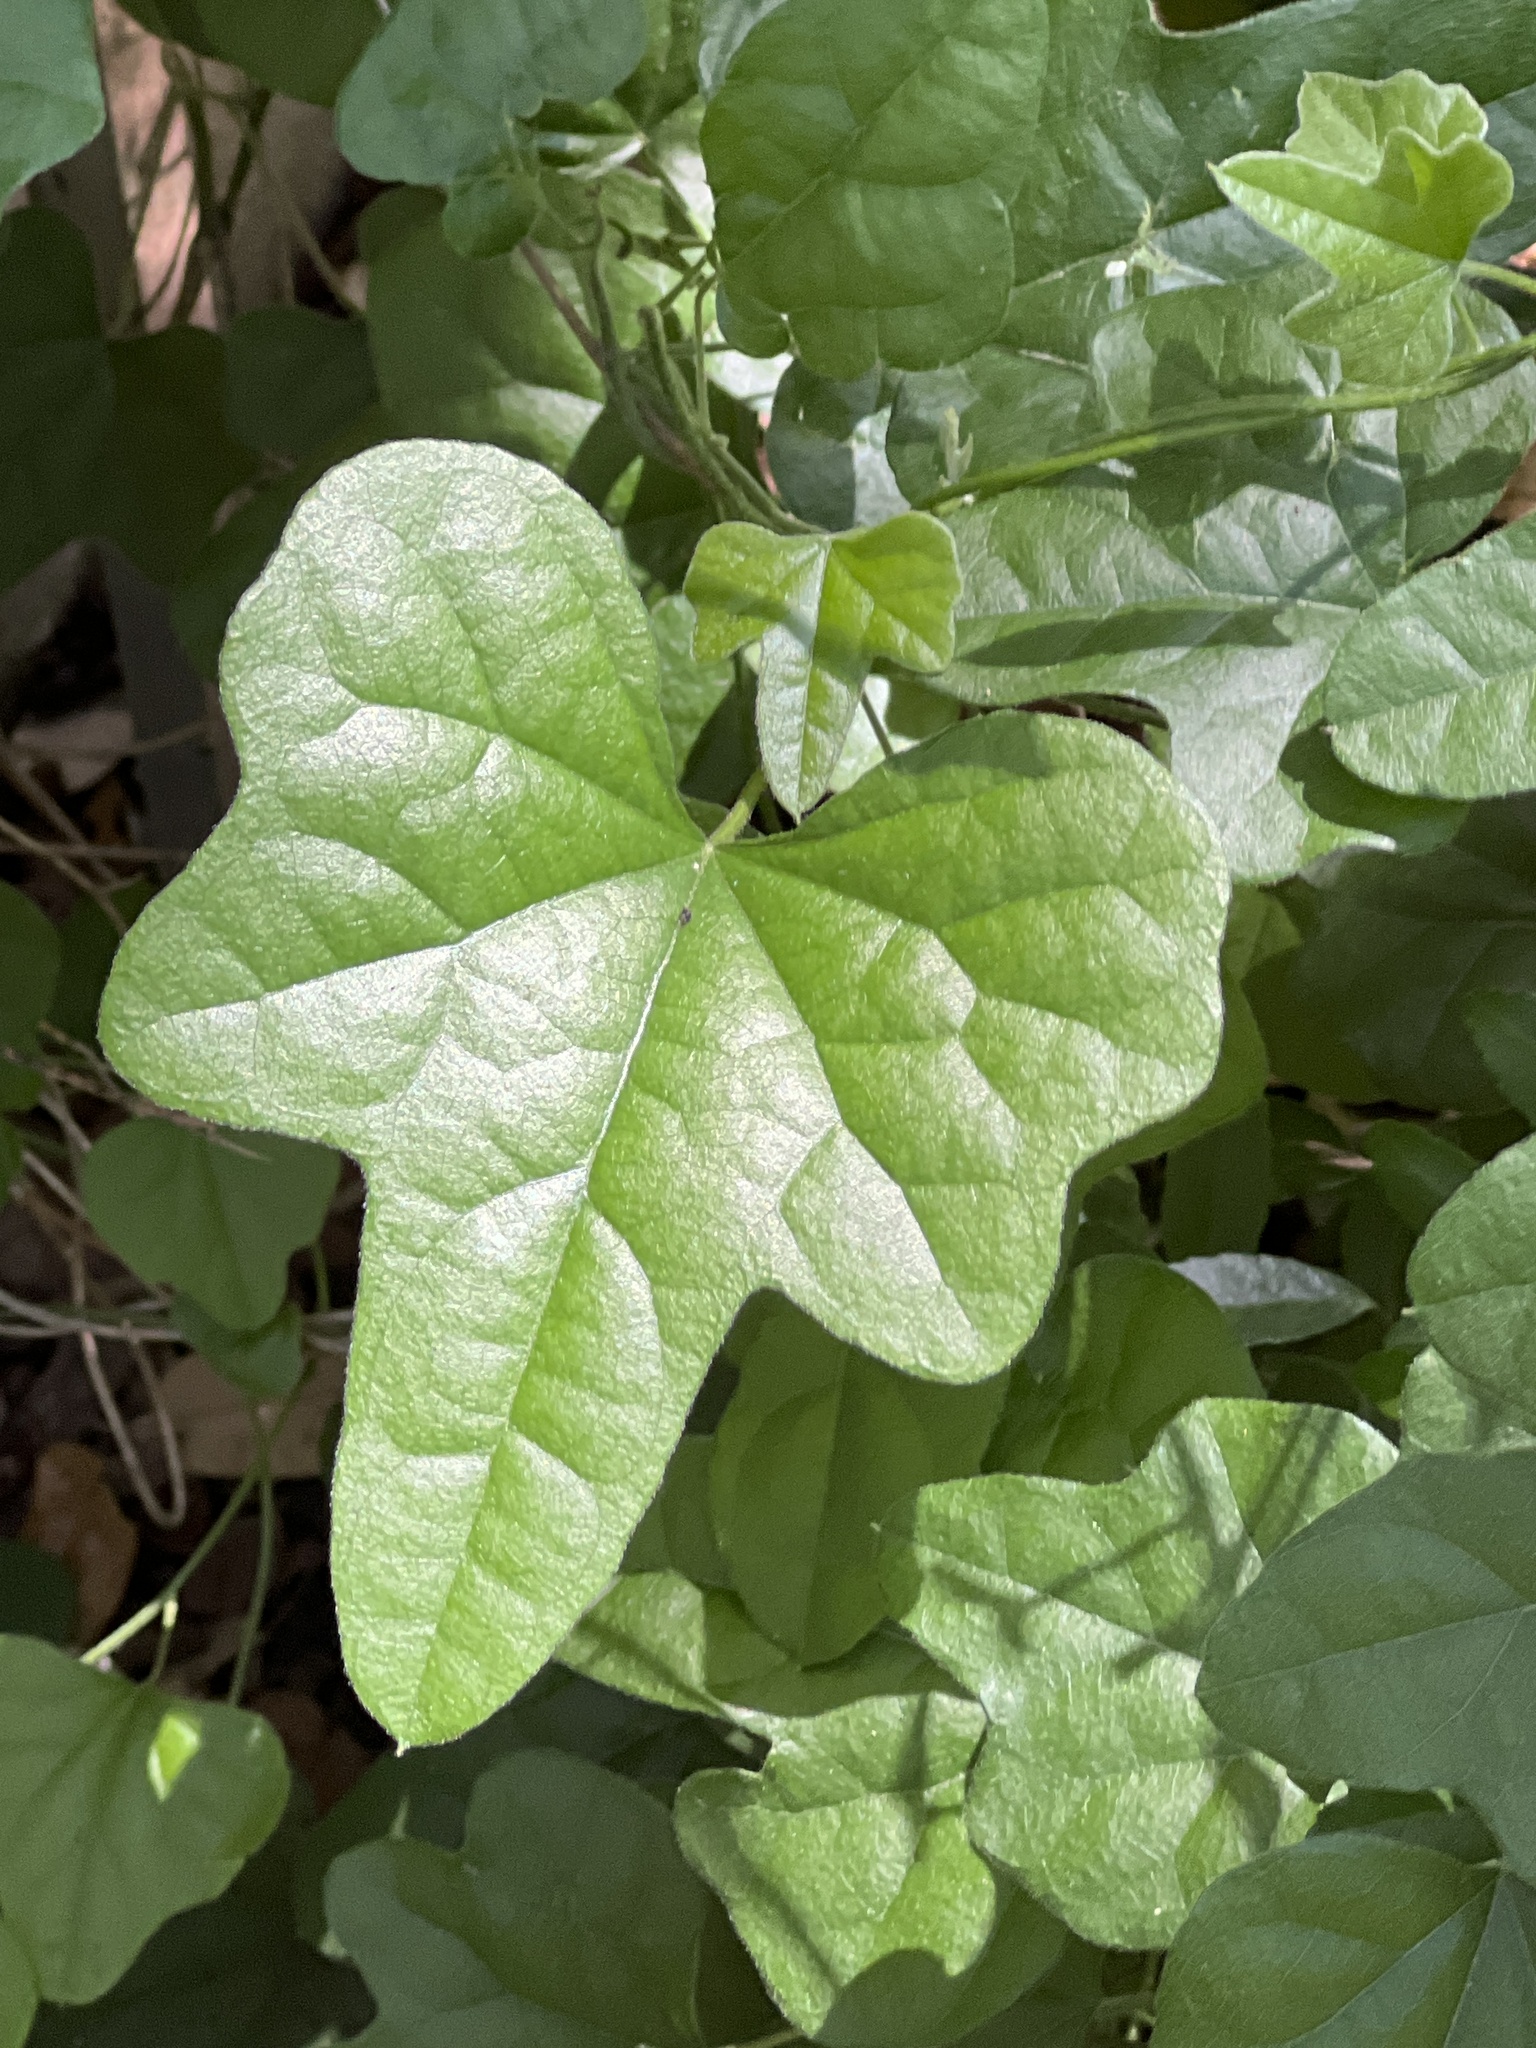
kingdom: Plantae
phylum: Tracheophyta
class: Magnoliopsida
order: Ranunculales
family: Menispermaceae
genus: Cocculus
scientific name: Cocculus carolinus
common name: Carolina moonseed
